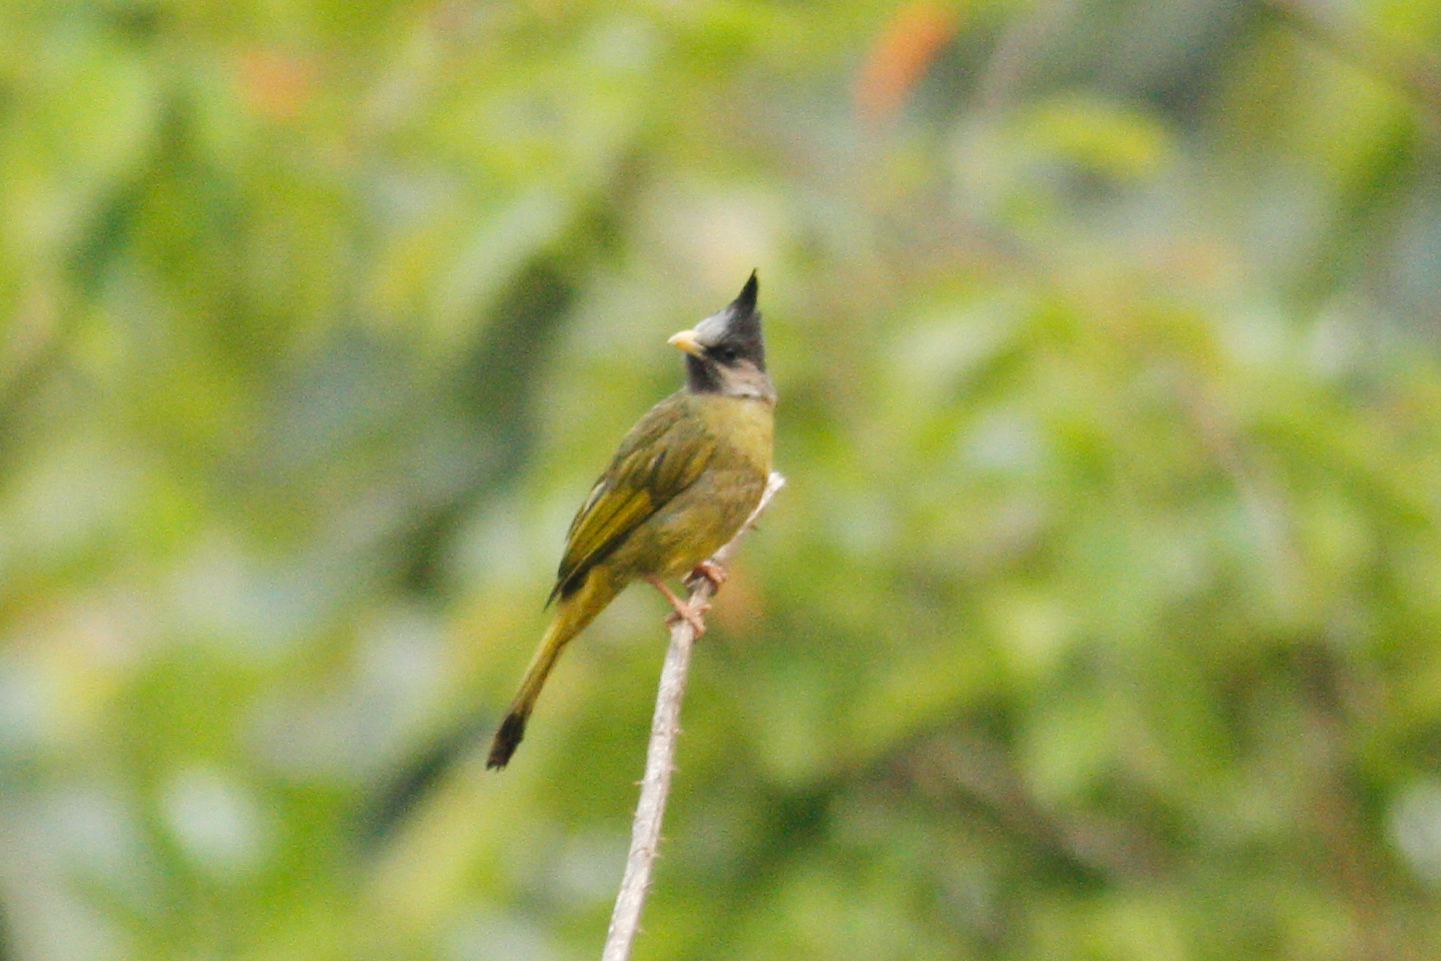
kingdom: Animalia
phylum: Chordata
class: Aves
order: Passeriformes
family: Pycnonotidae
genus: Spizixos
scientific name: Spizixos canifrons
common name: Crested finchbill
